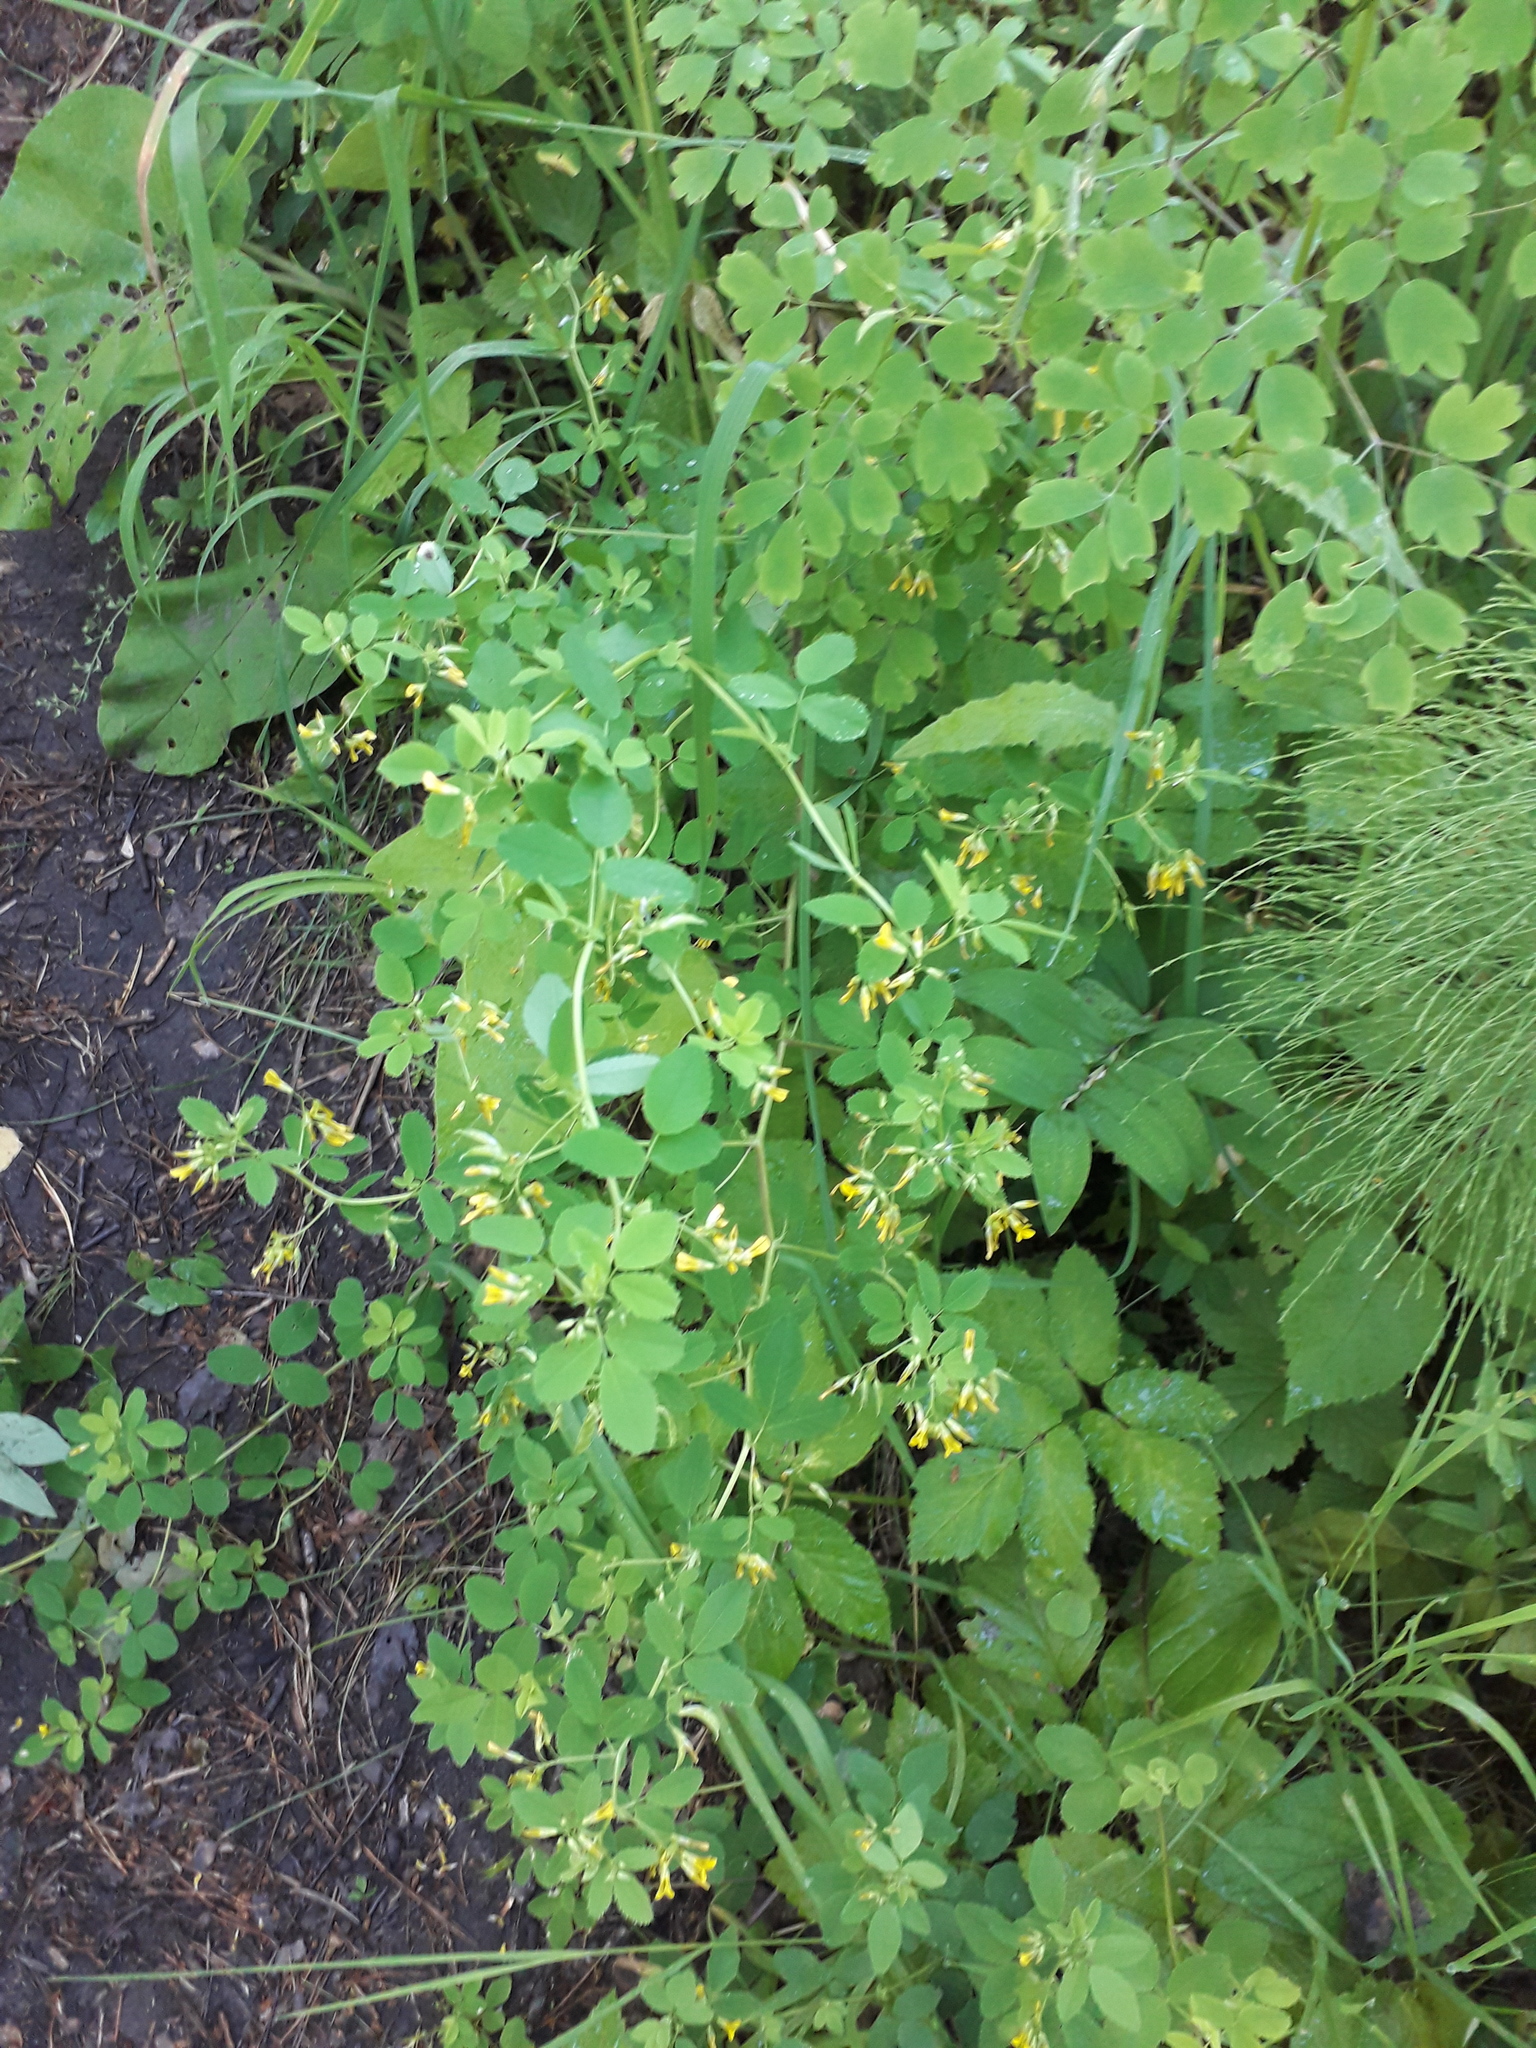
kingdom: Plantae
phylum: Tracheophyta
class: Magnoliopsida
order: Fabales
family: Fabaceae
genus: Medicago
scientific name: Medicago platycarpos
